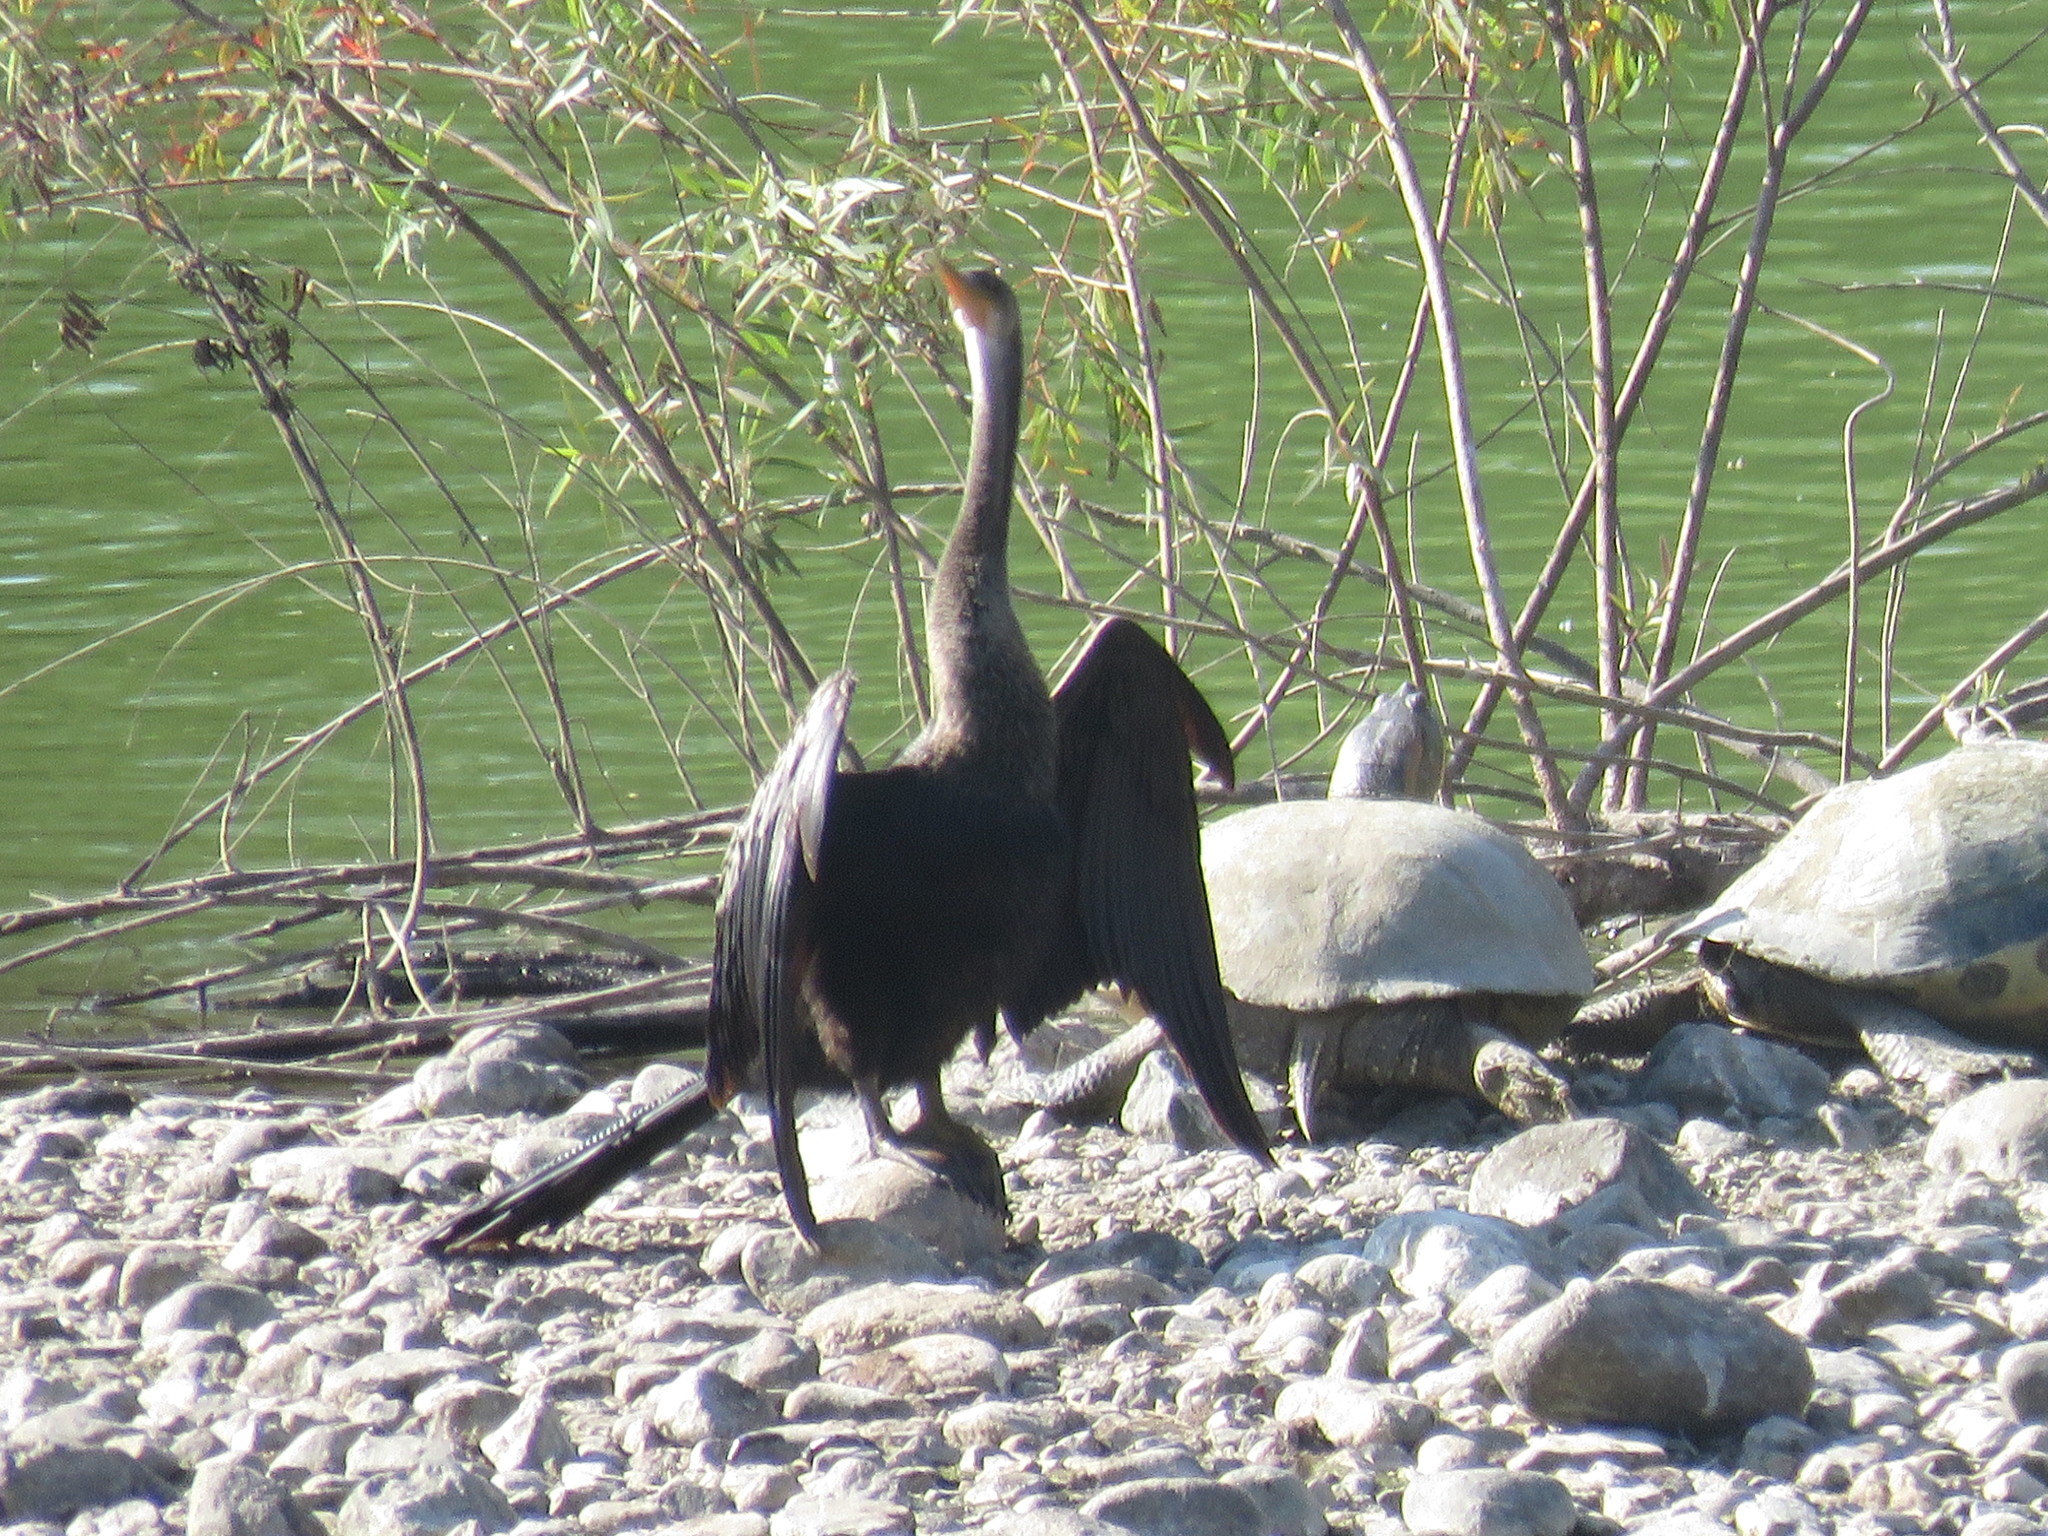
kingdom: Animalia
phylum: Chordata
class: Aves
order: Suliformes
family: Anhingidae
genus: Anhinga
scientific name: Anhinga anhinga
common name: Anhinga
